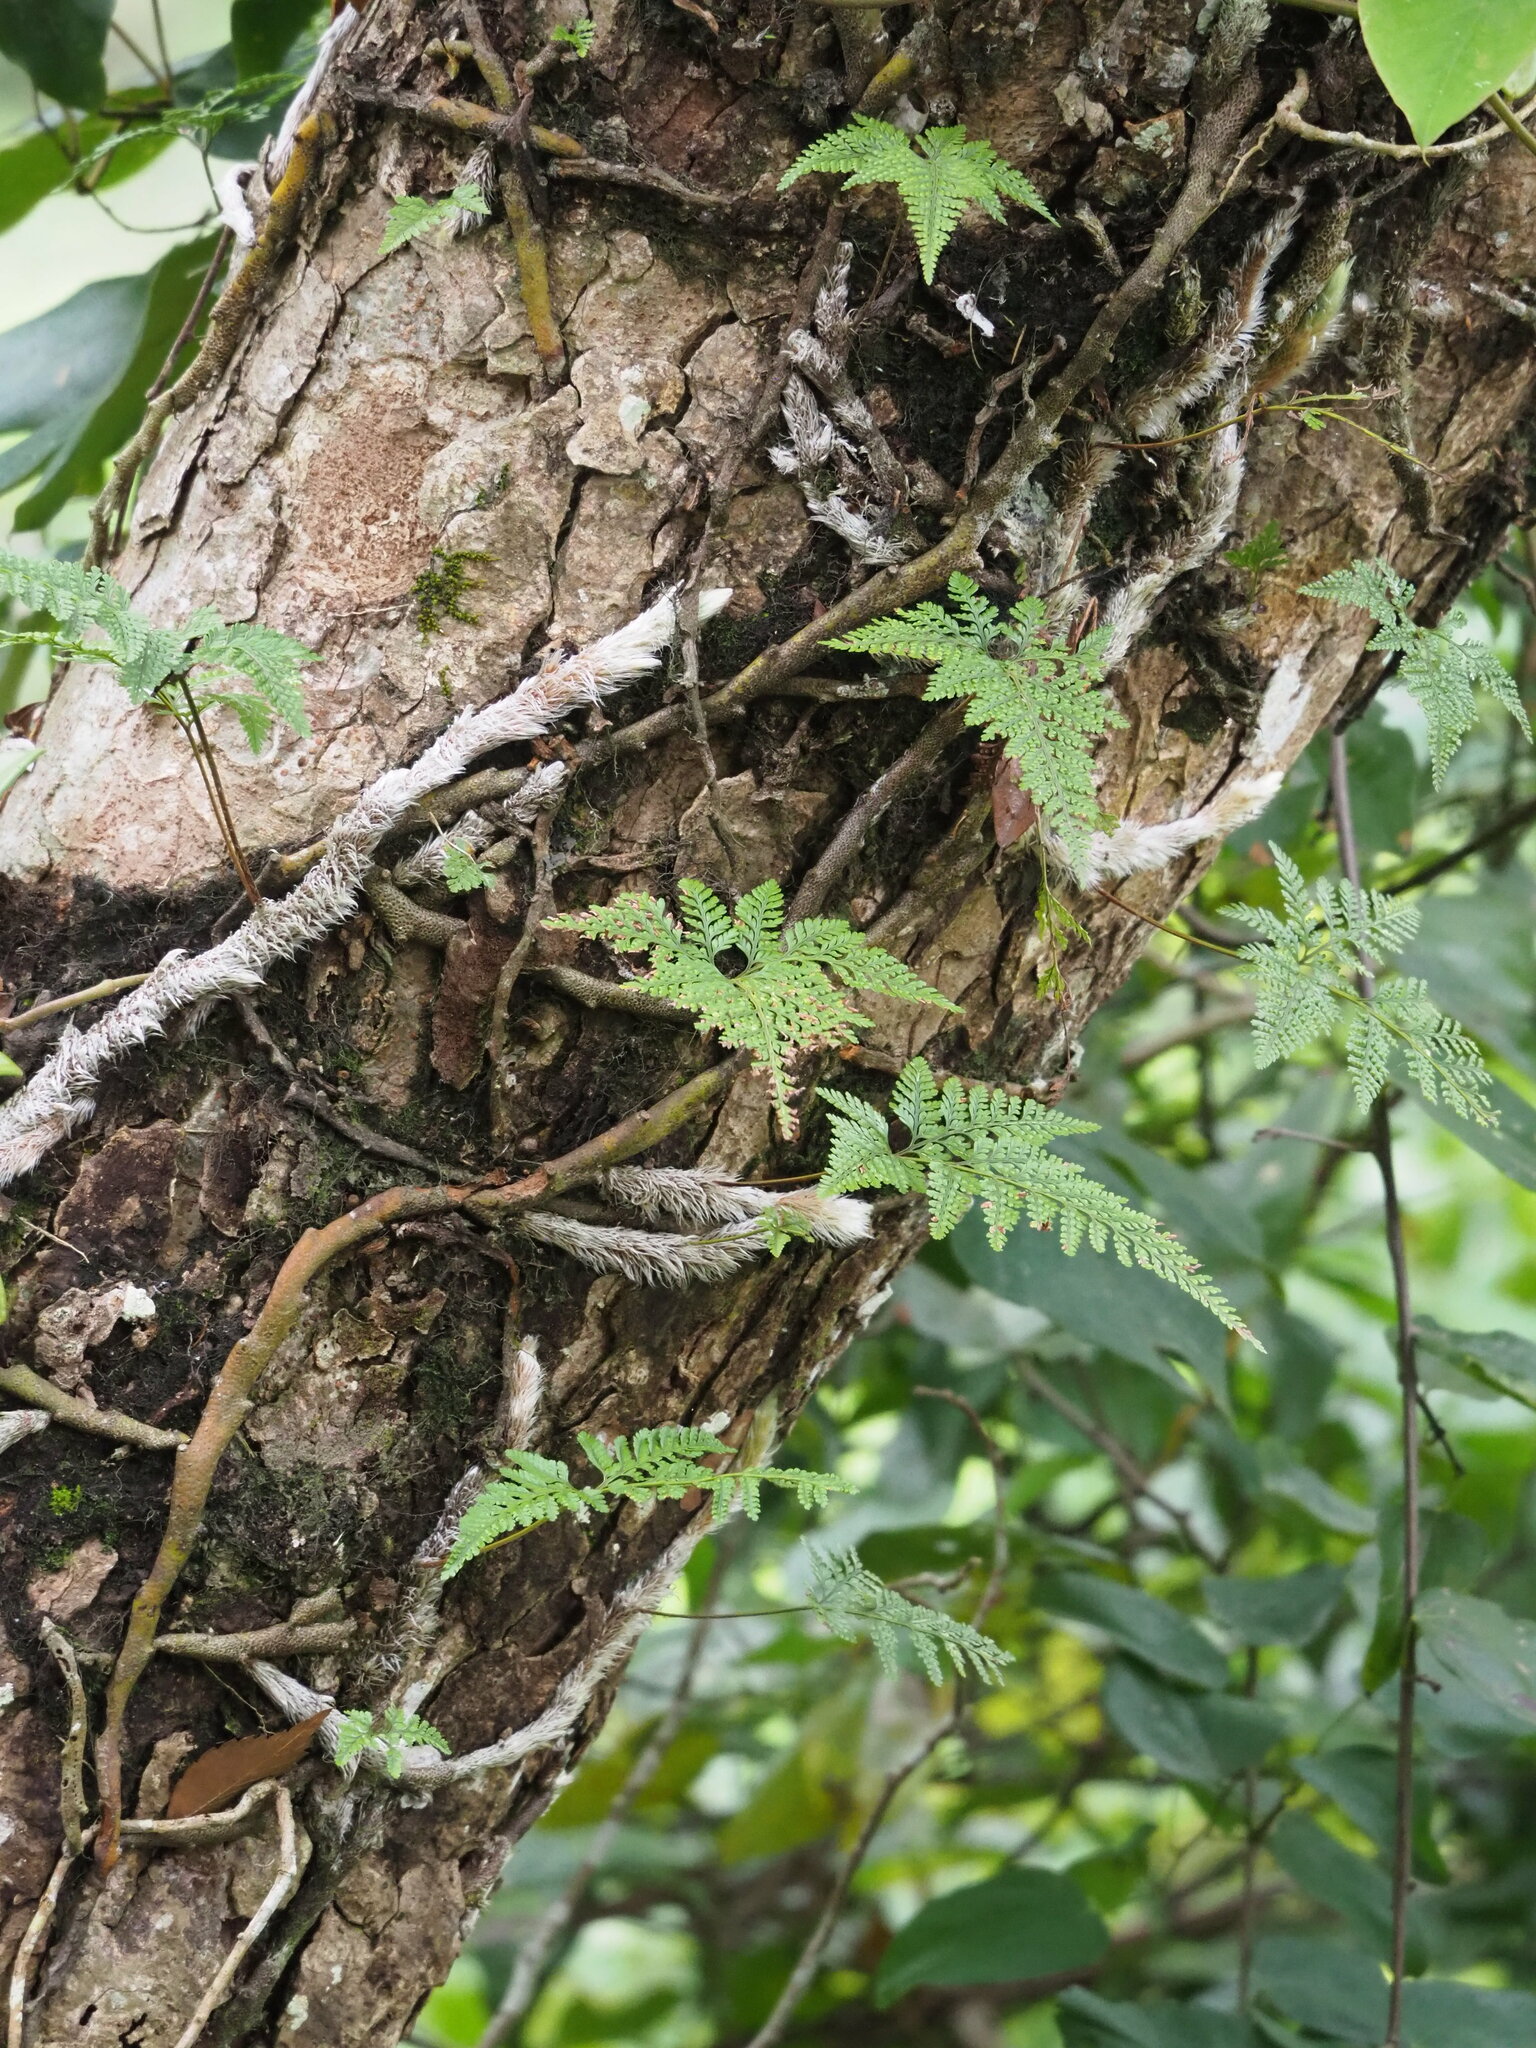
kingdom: Plantae
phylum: Tracheophyta
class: Polypodiopsida
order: Polypodiales
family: Davalliaceae
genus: Davallia
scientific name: Davallia griffithiana
